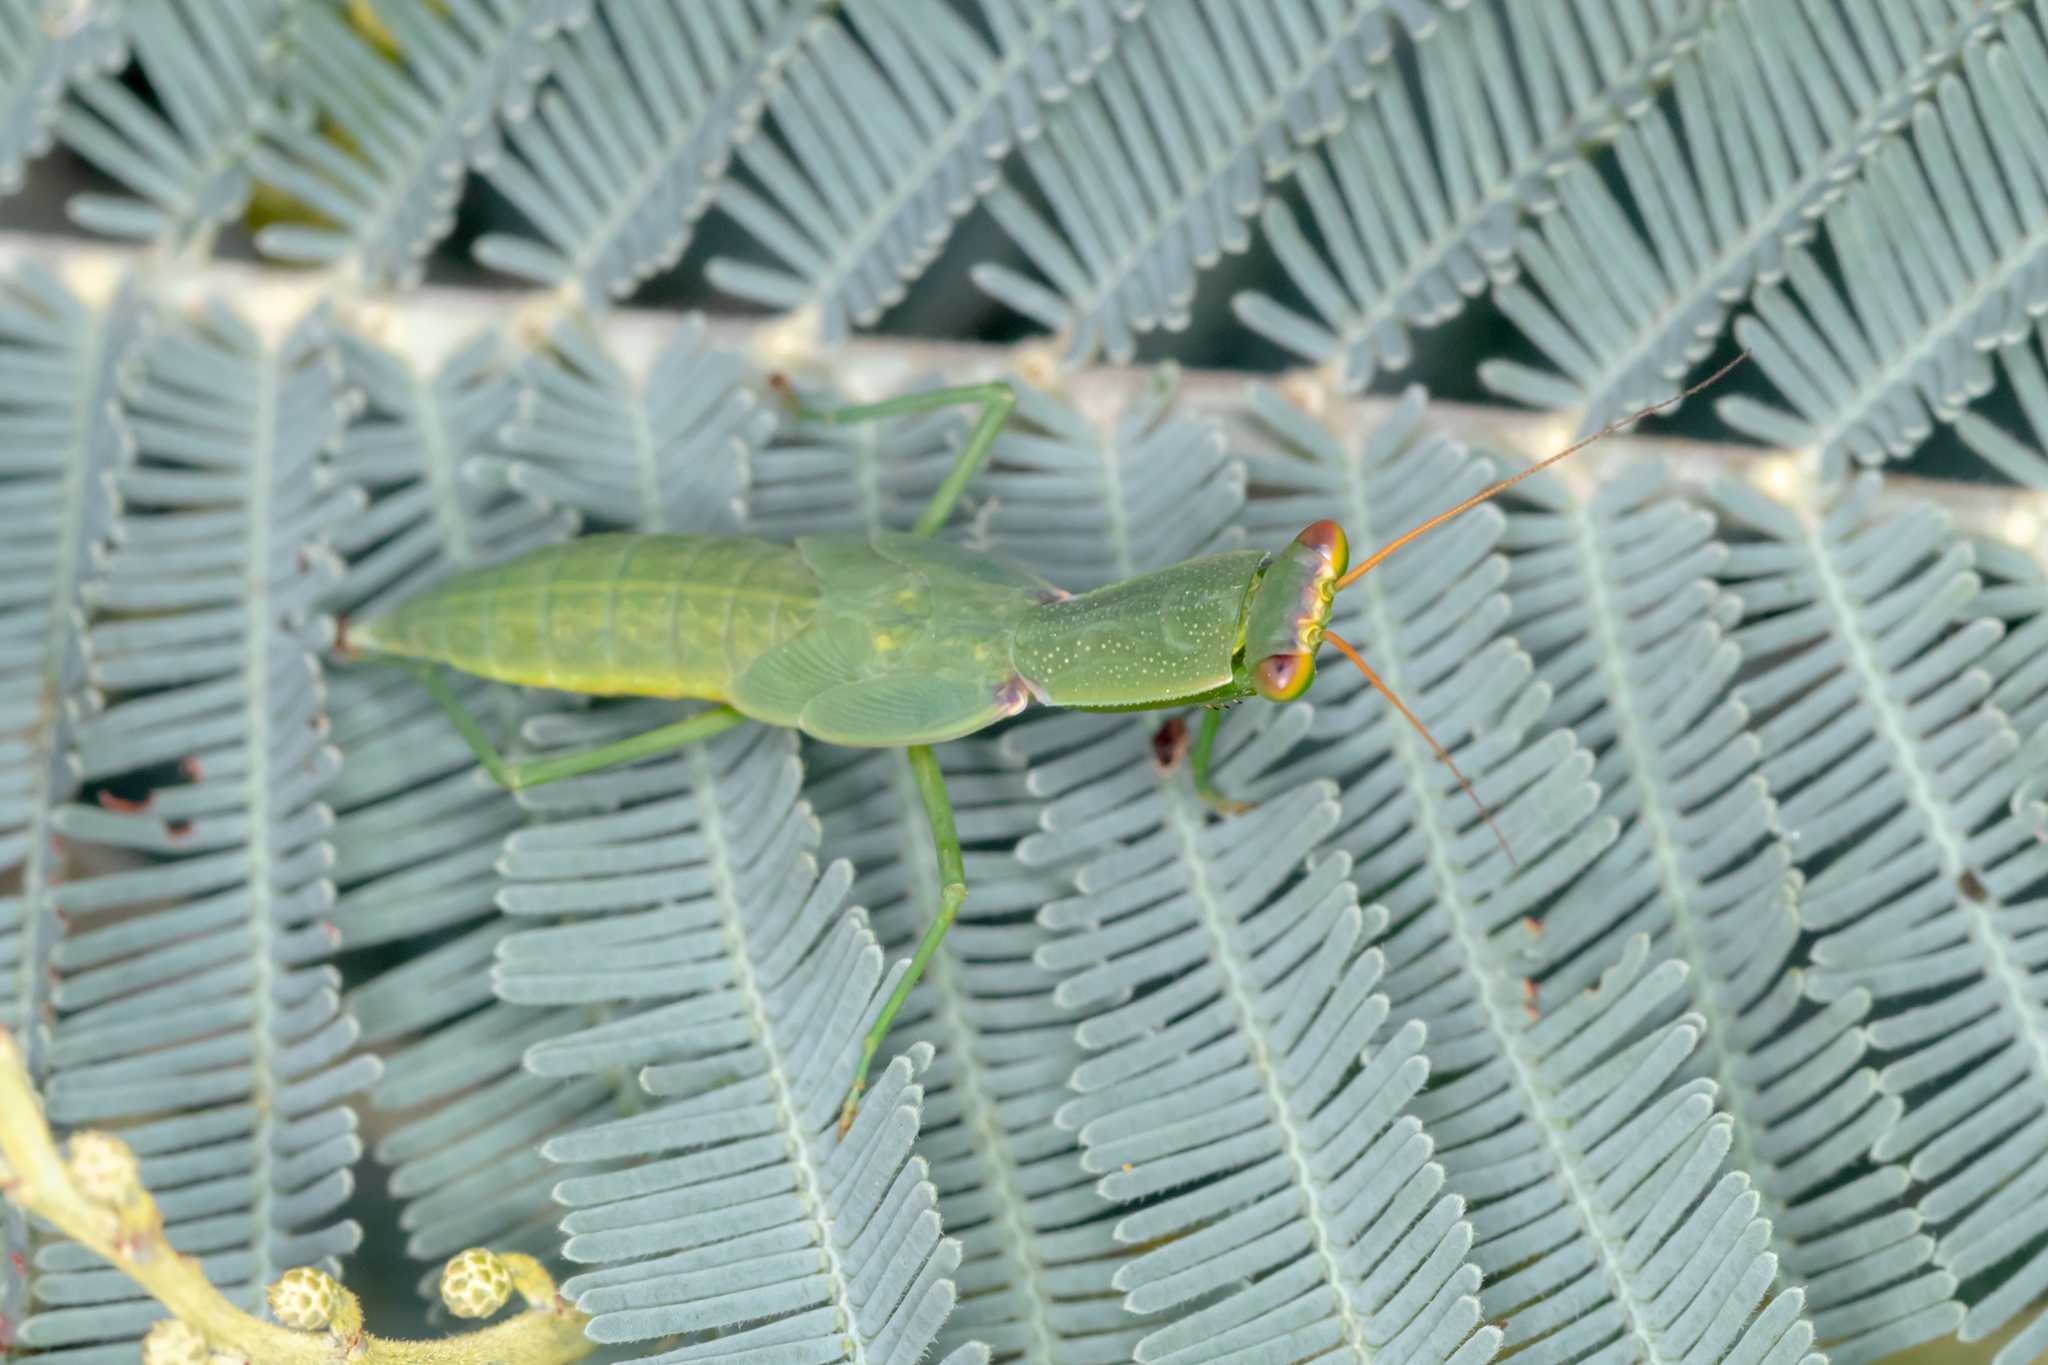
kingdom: Animalia
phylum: Arthropoda
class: Insecta
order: Mantodea
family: Mantidae
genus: Orthodera
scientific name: Orthodera ministralis
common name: Mantis
